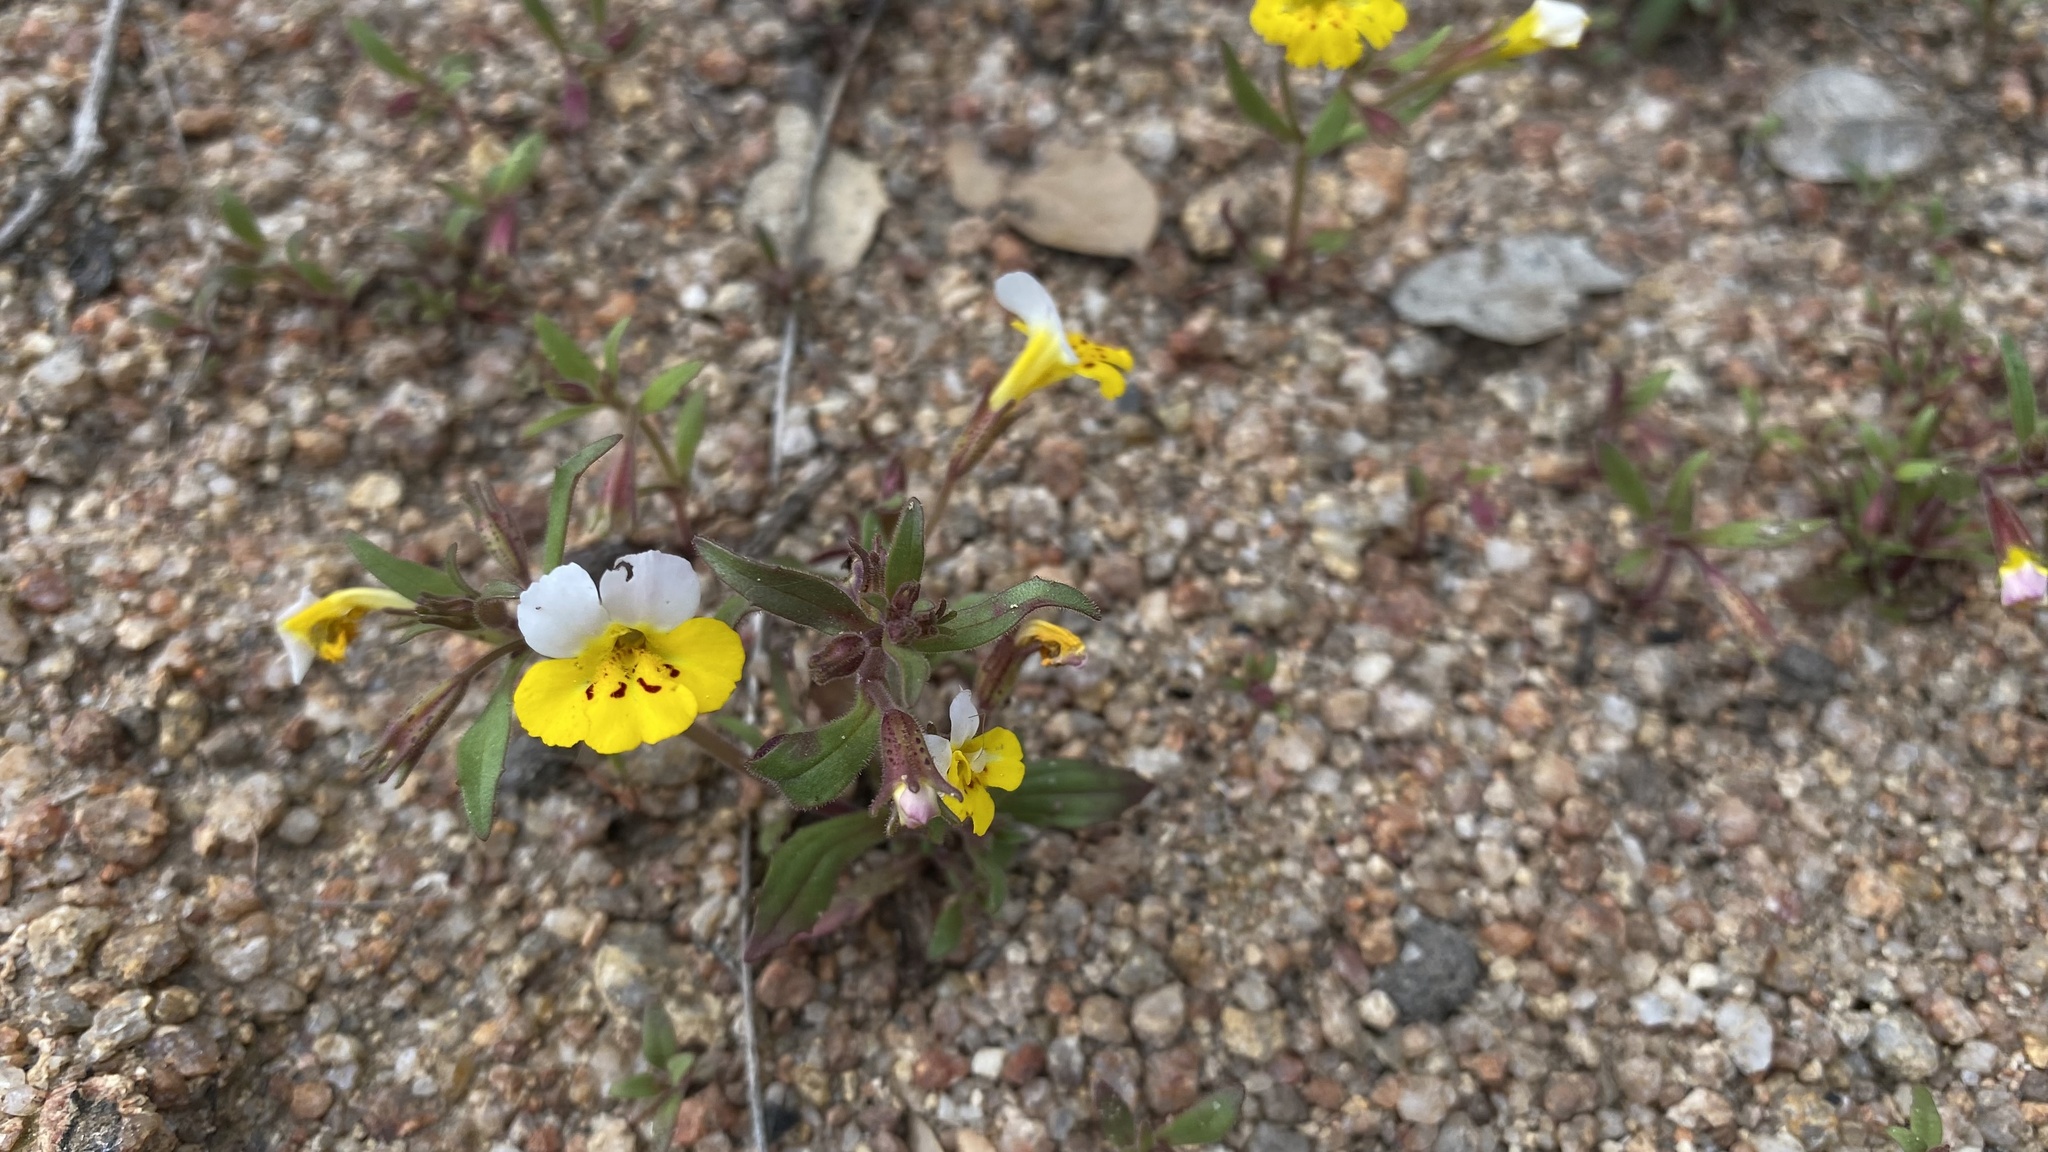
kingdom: Plantae
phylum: Tracheophyta
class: Magnoliopsida
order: Lamiales
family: Phrymaceae
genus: Erythranthe
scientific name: Erythranthe bicolor
